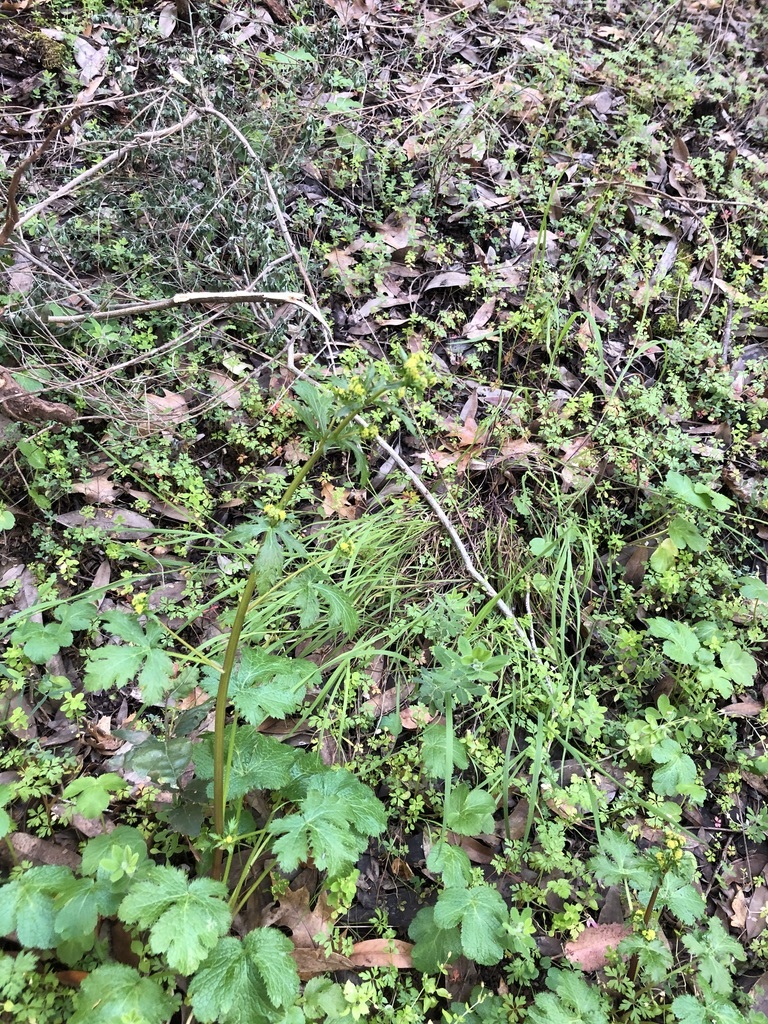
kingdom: Plantae
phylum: Tracheophyta
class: Magnoliopsida
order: Apiales
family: Apiaceae
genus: Sanicula
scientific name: Sanicula crassicaulis
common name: Western snakeroot
